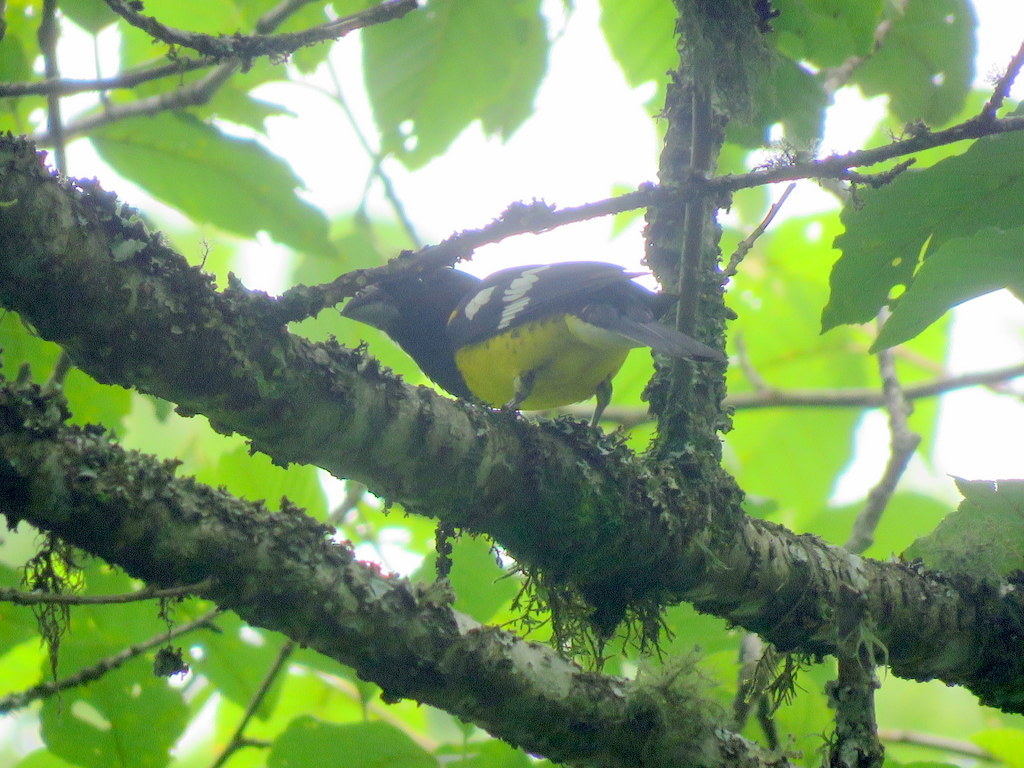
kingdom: Animalia
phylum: Chordata
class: Aves
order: Passeriformes
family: Cardinalidae
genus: Pheucticus
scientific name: Pheucticus aureoventris
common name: Black-backed grosbeak
